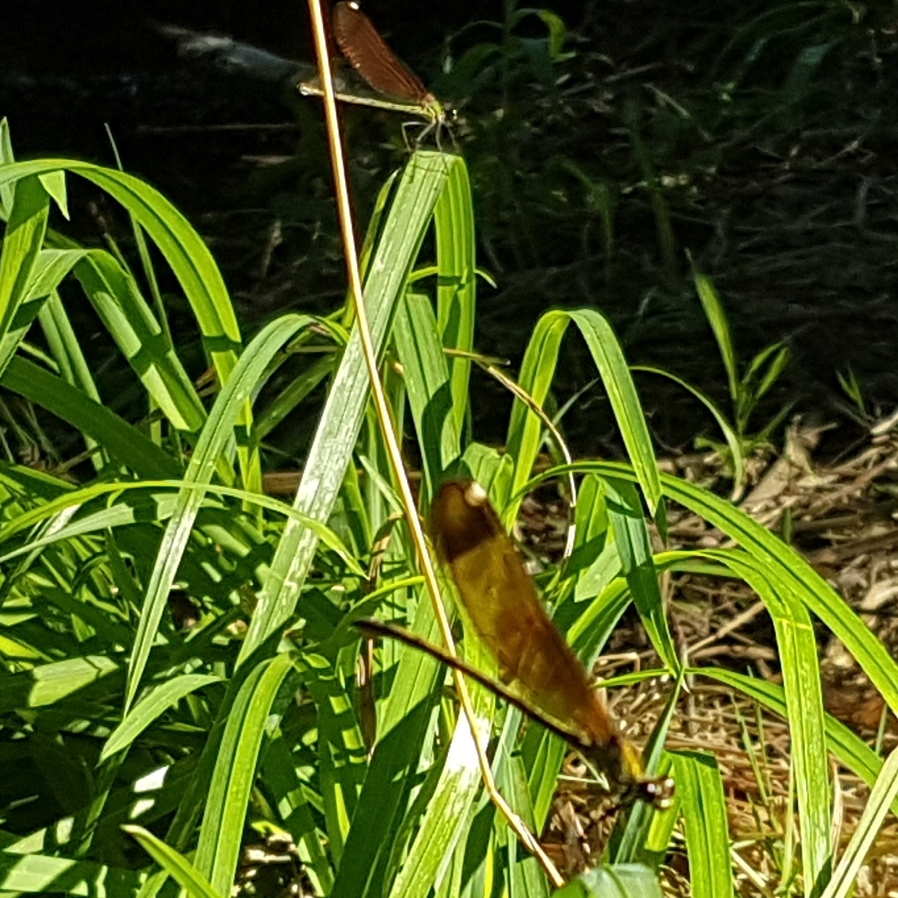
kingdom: Animalia
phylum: Arthropoda
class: Insecta
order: Odonata
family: Calopterygidae
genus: Calopteryx
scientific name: Calopteryx haemorrhoidalis
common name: Copper demoiselle
